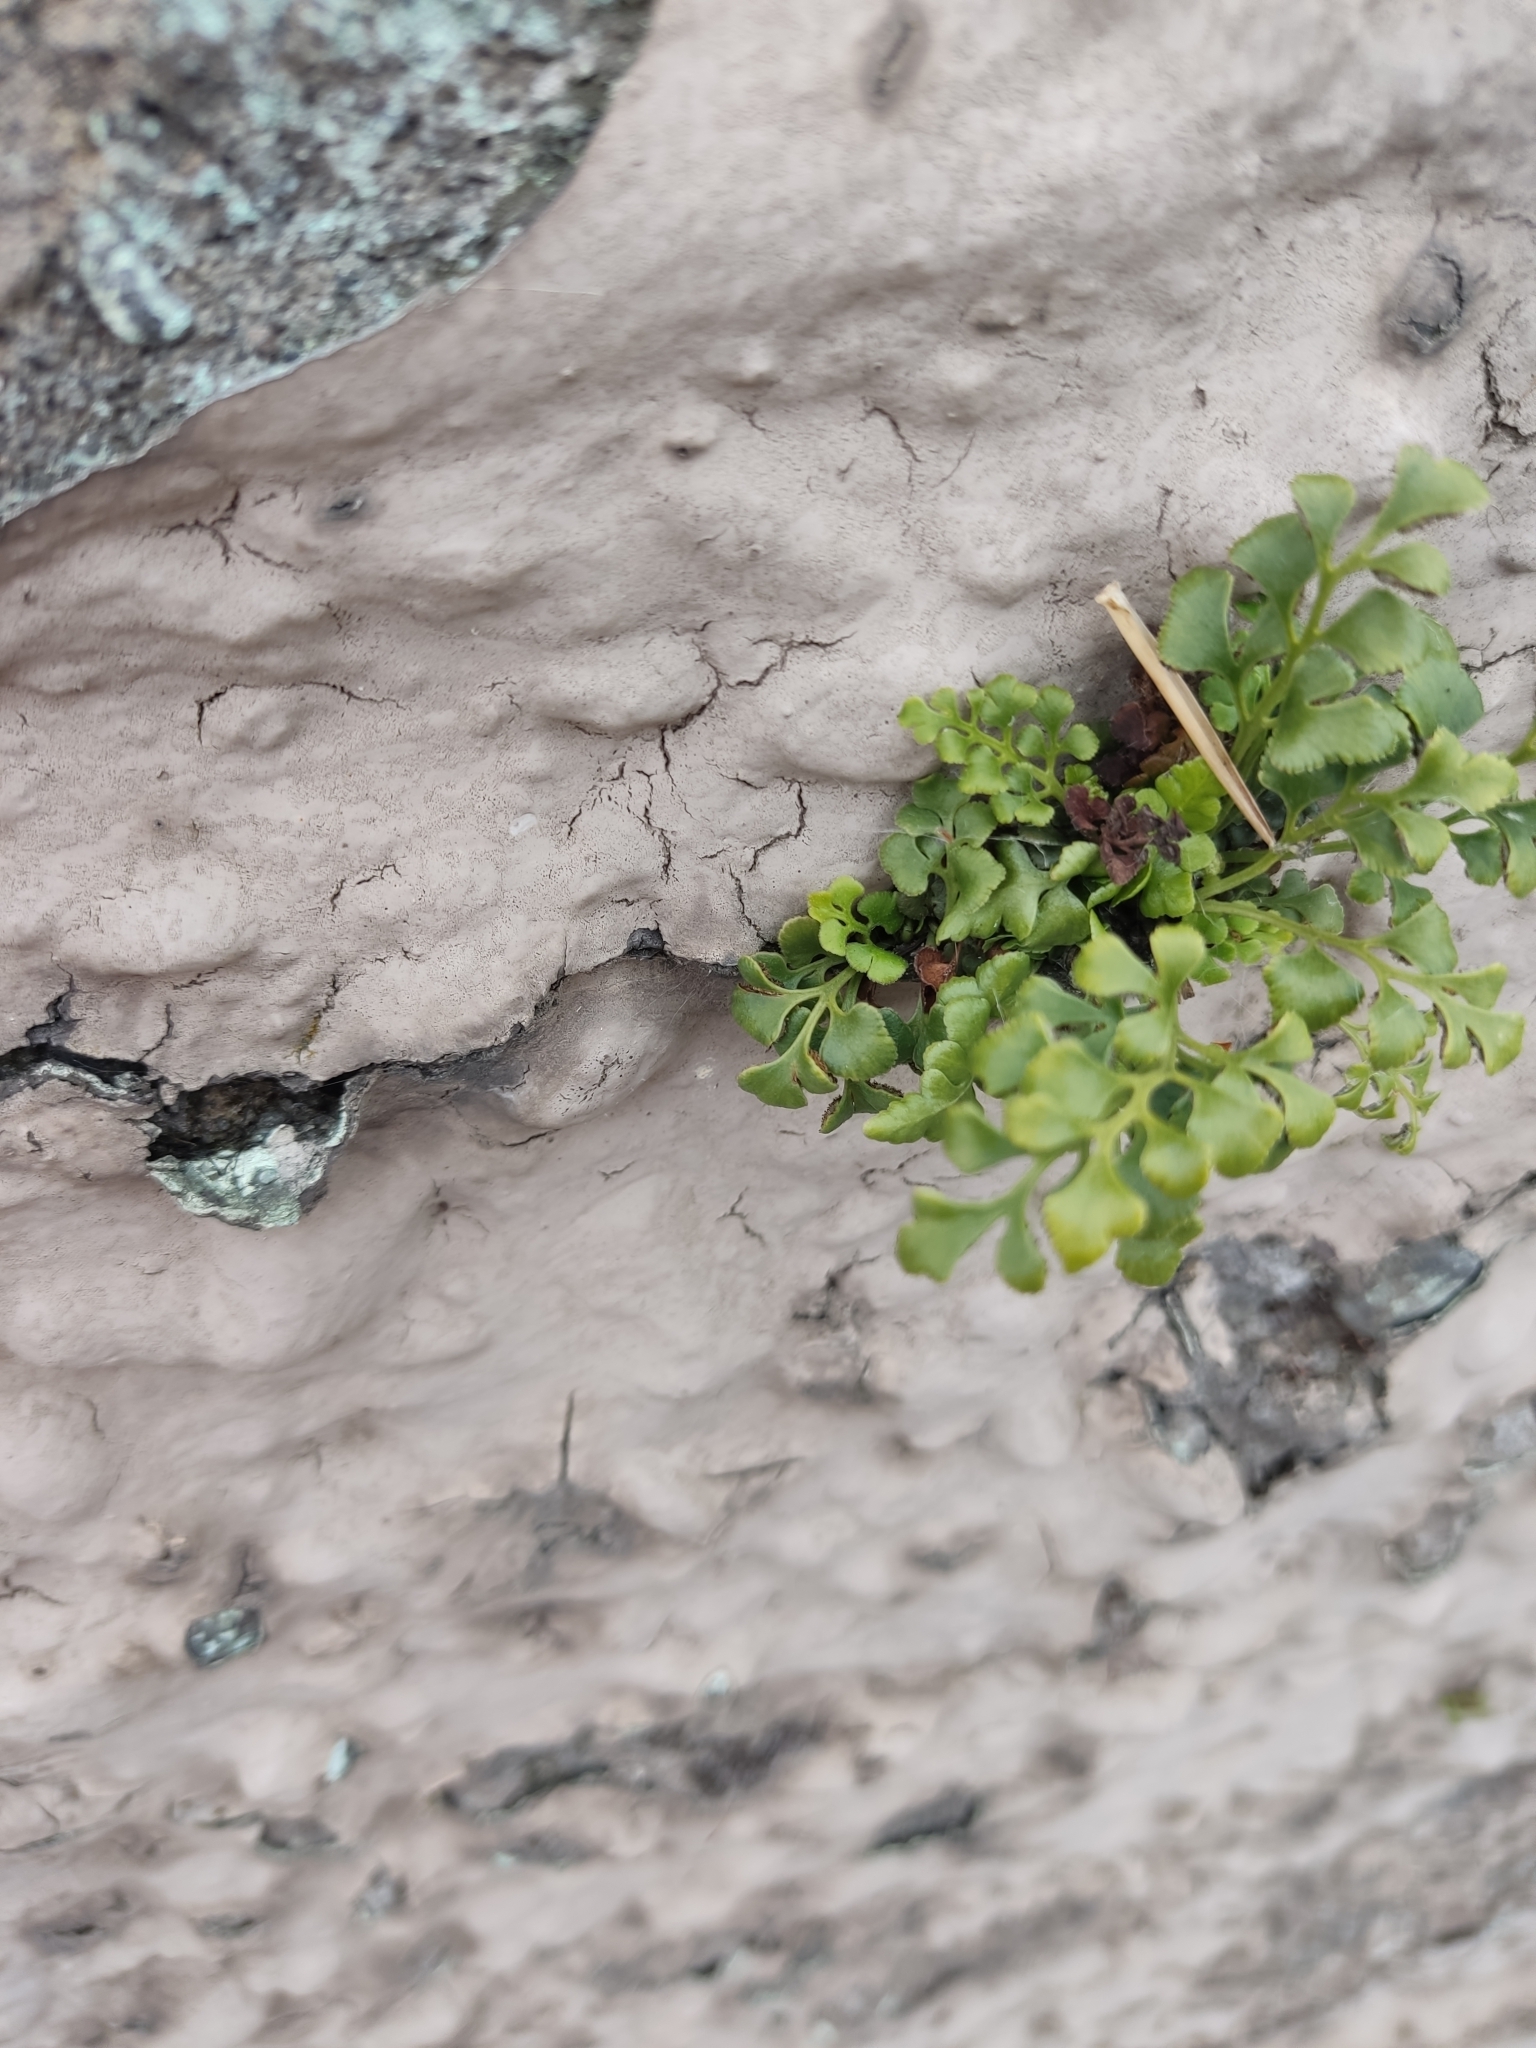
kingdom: Plantae
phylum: Tracheophyta
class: Polypodiopsida
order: Polypodiales
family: Aspleniaceae
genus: Asplenium
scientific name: Asplenium ruta-muraria
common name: Wall-rue
